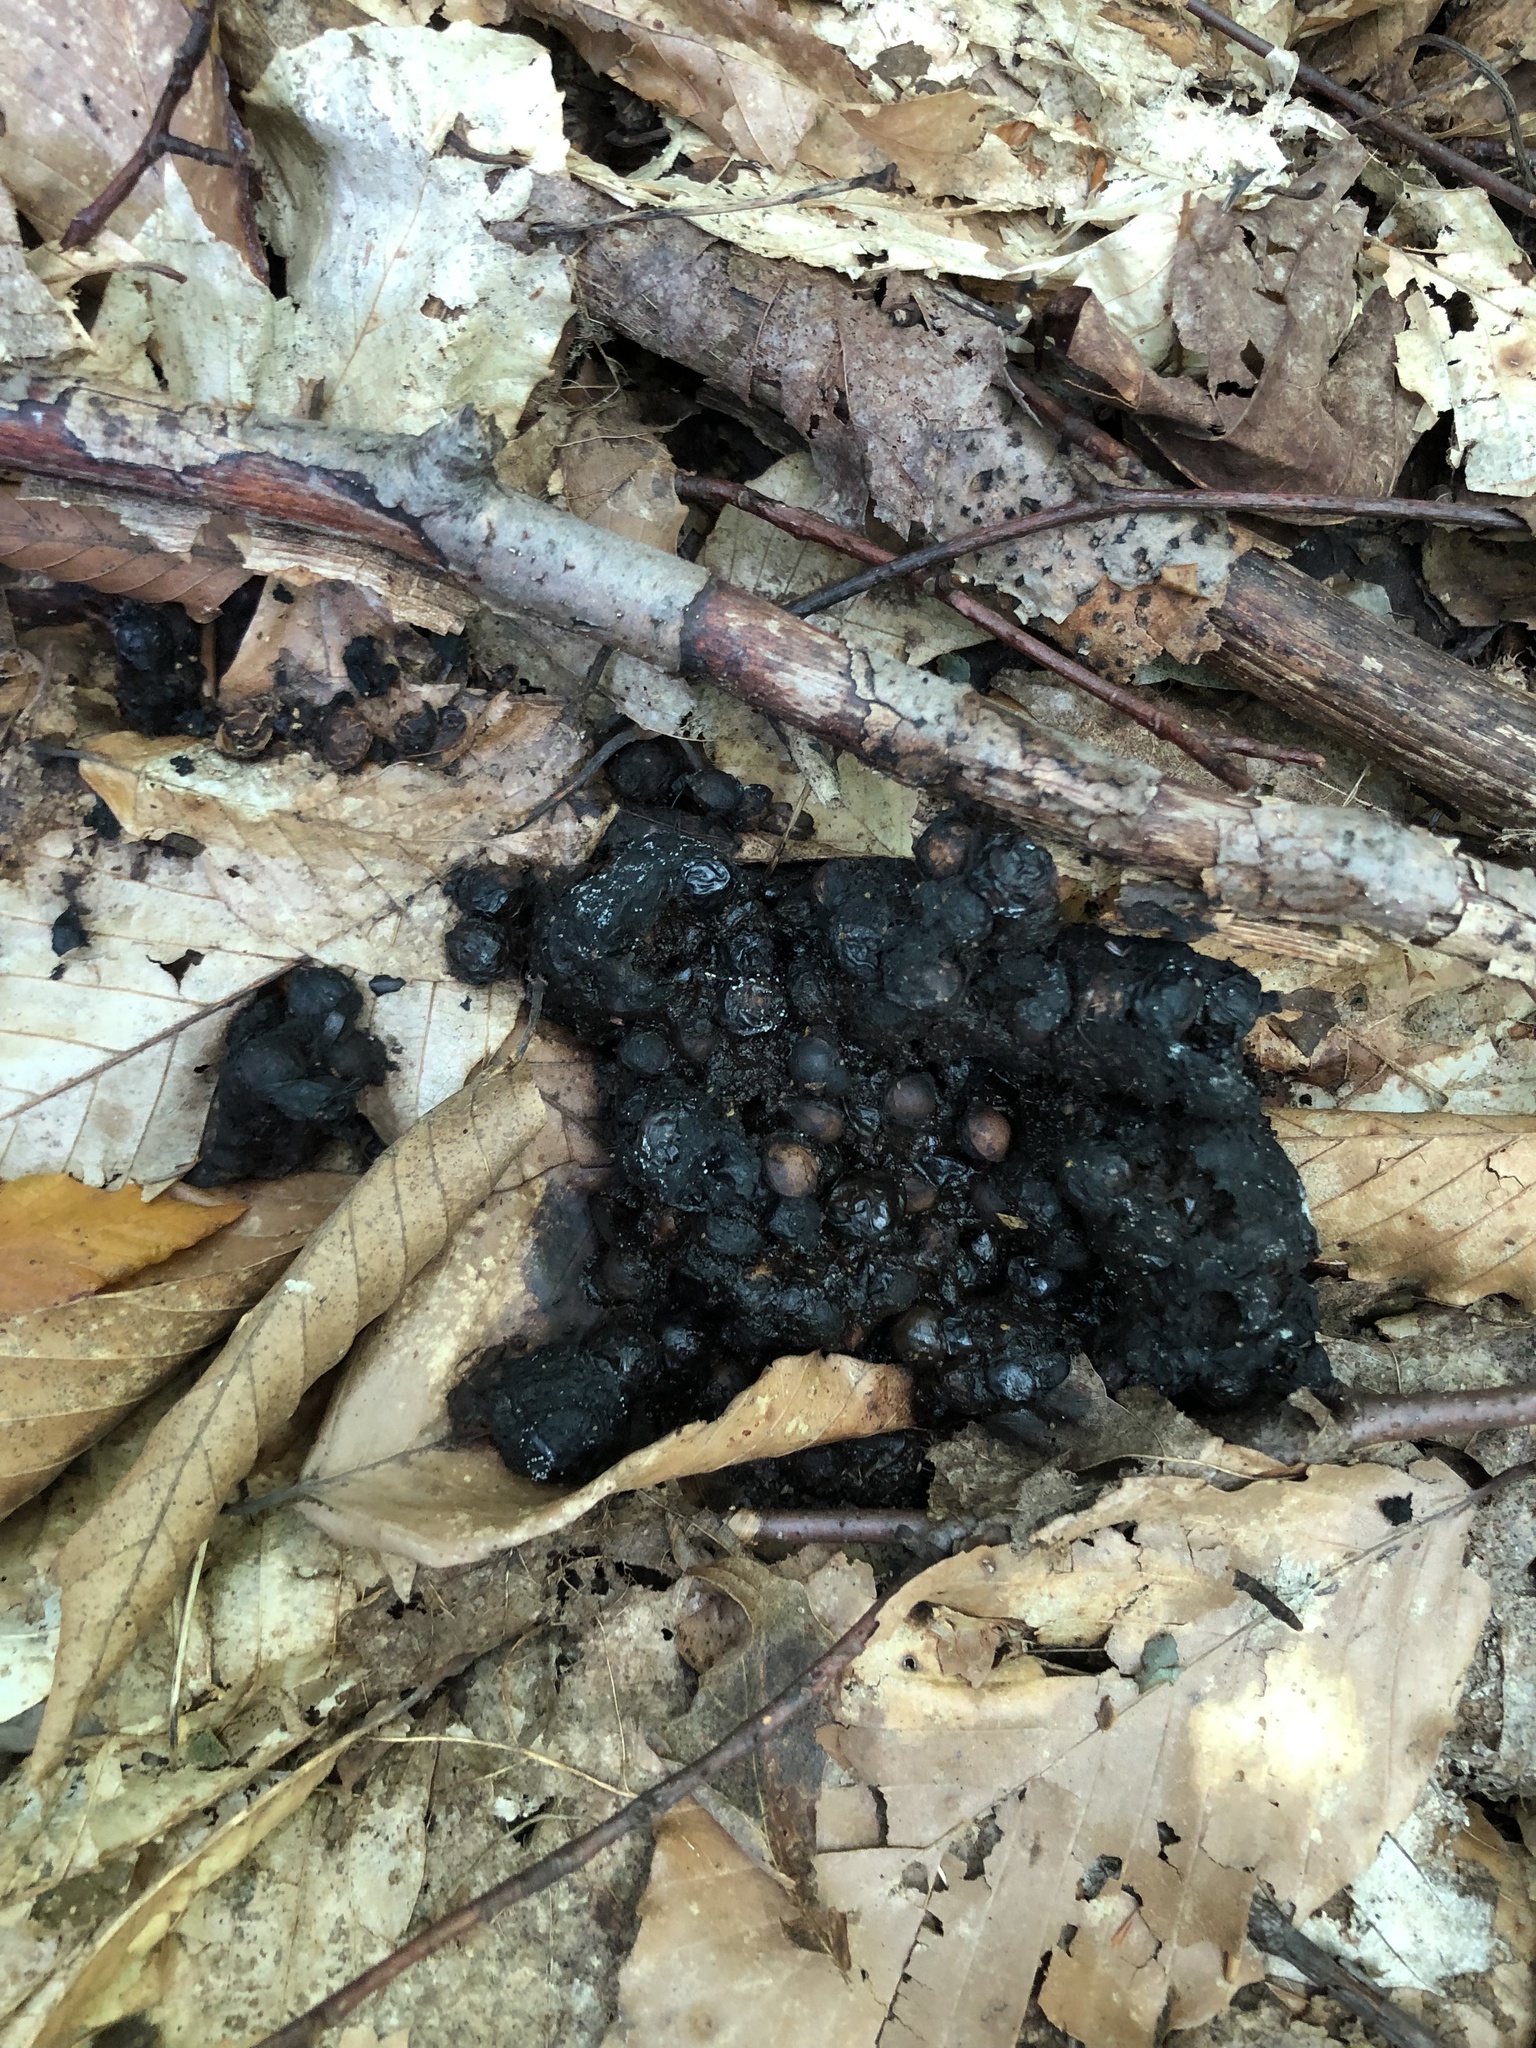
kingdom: Animalia
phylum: Chordata
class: Mammalia
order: Carnivora
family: Ursidae
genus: Ursus
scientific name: Ursus americanus
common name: American black bear
